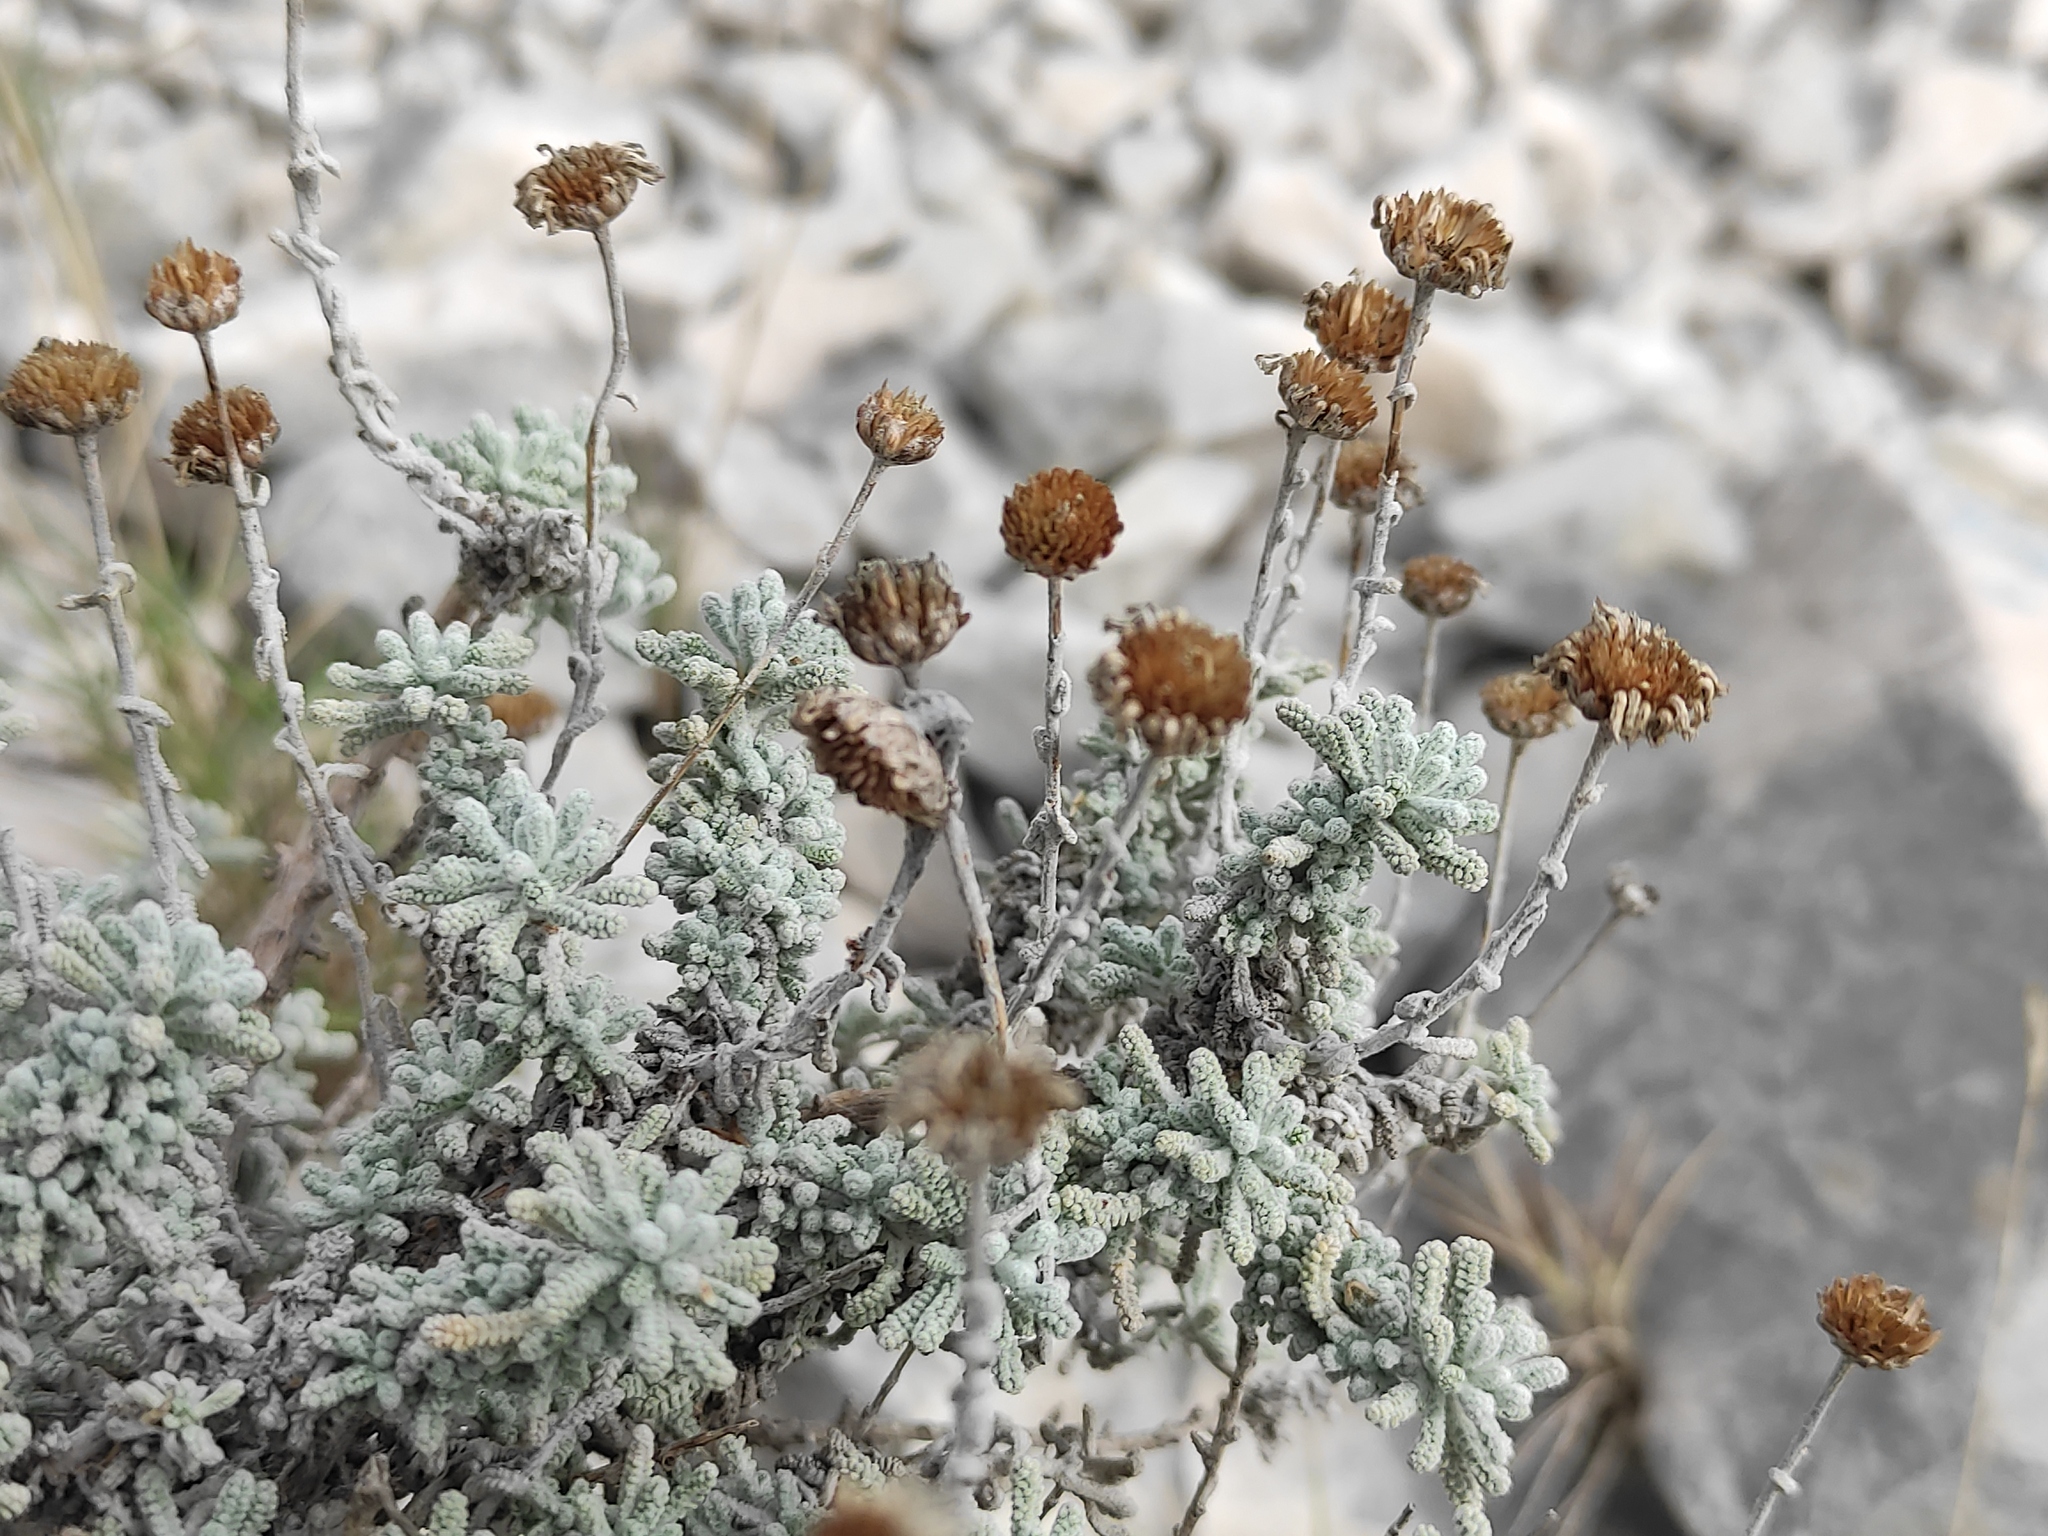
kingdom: Plantae
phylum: Tracheophyta
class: Magnoliopsida
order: Asterales
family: Asteraceae
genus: Santolina
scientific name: Santolina decumbens
